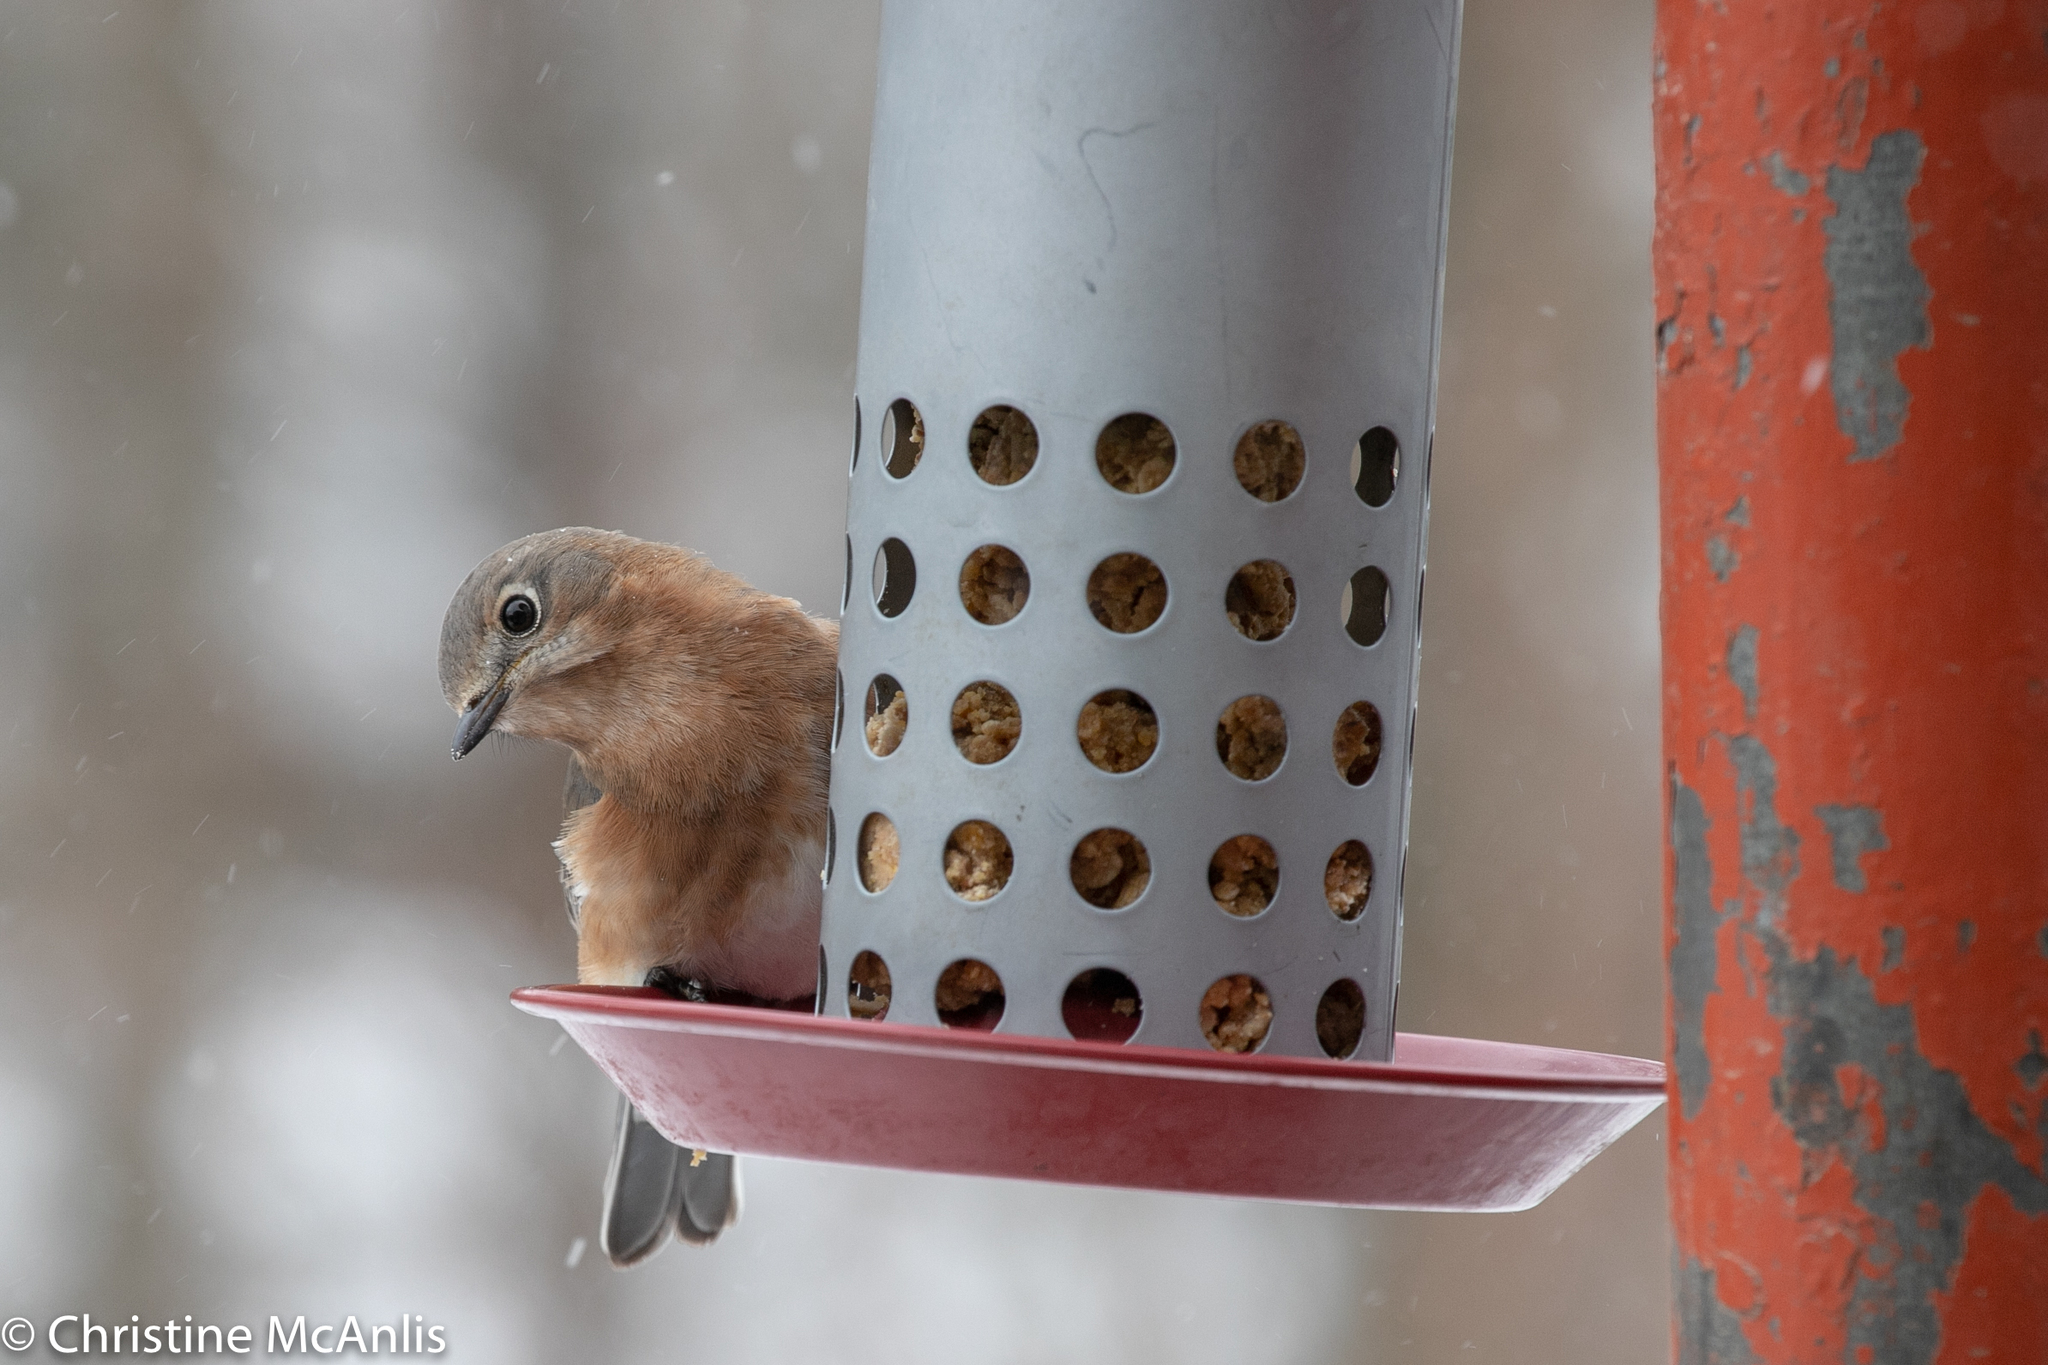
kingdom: Animalia
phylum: Chordata
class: Aves
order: Passeriformes
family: Turdidae
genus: Sialia
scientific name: Sialia sialis
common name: Eastern bluebird
